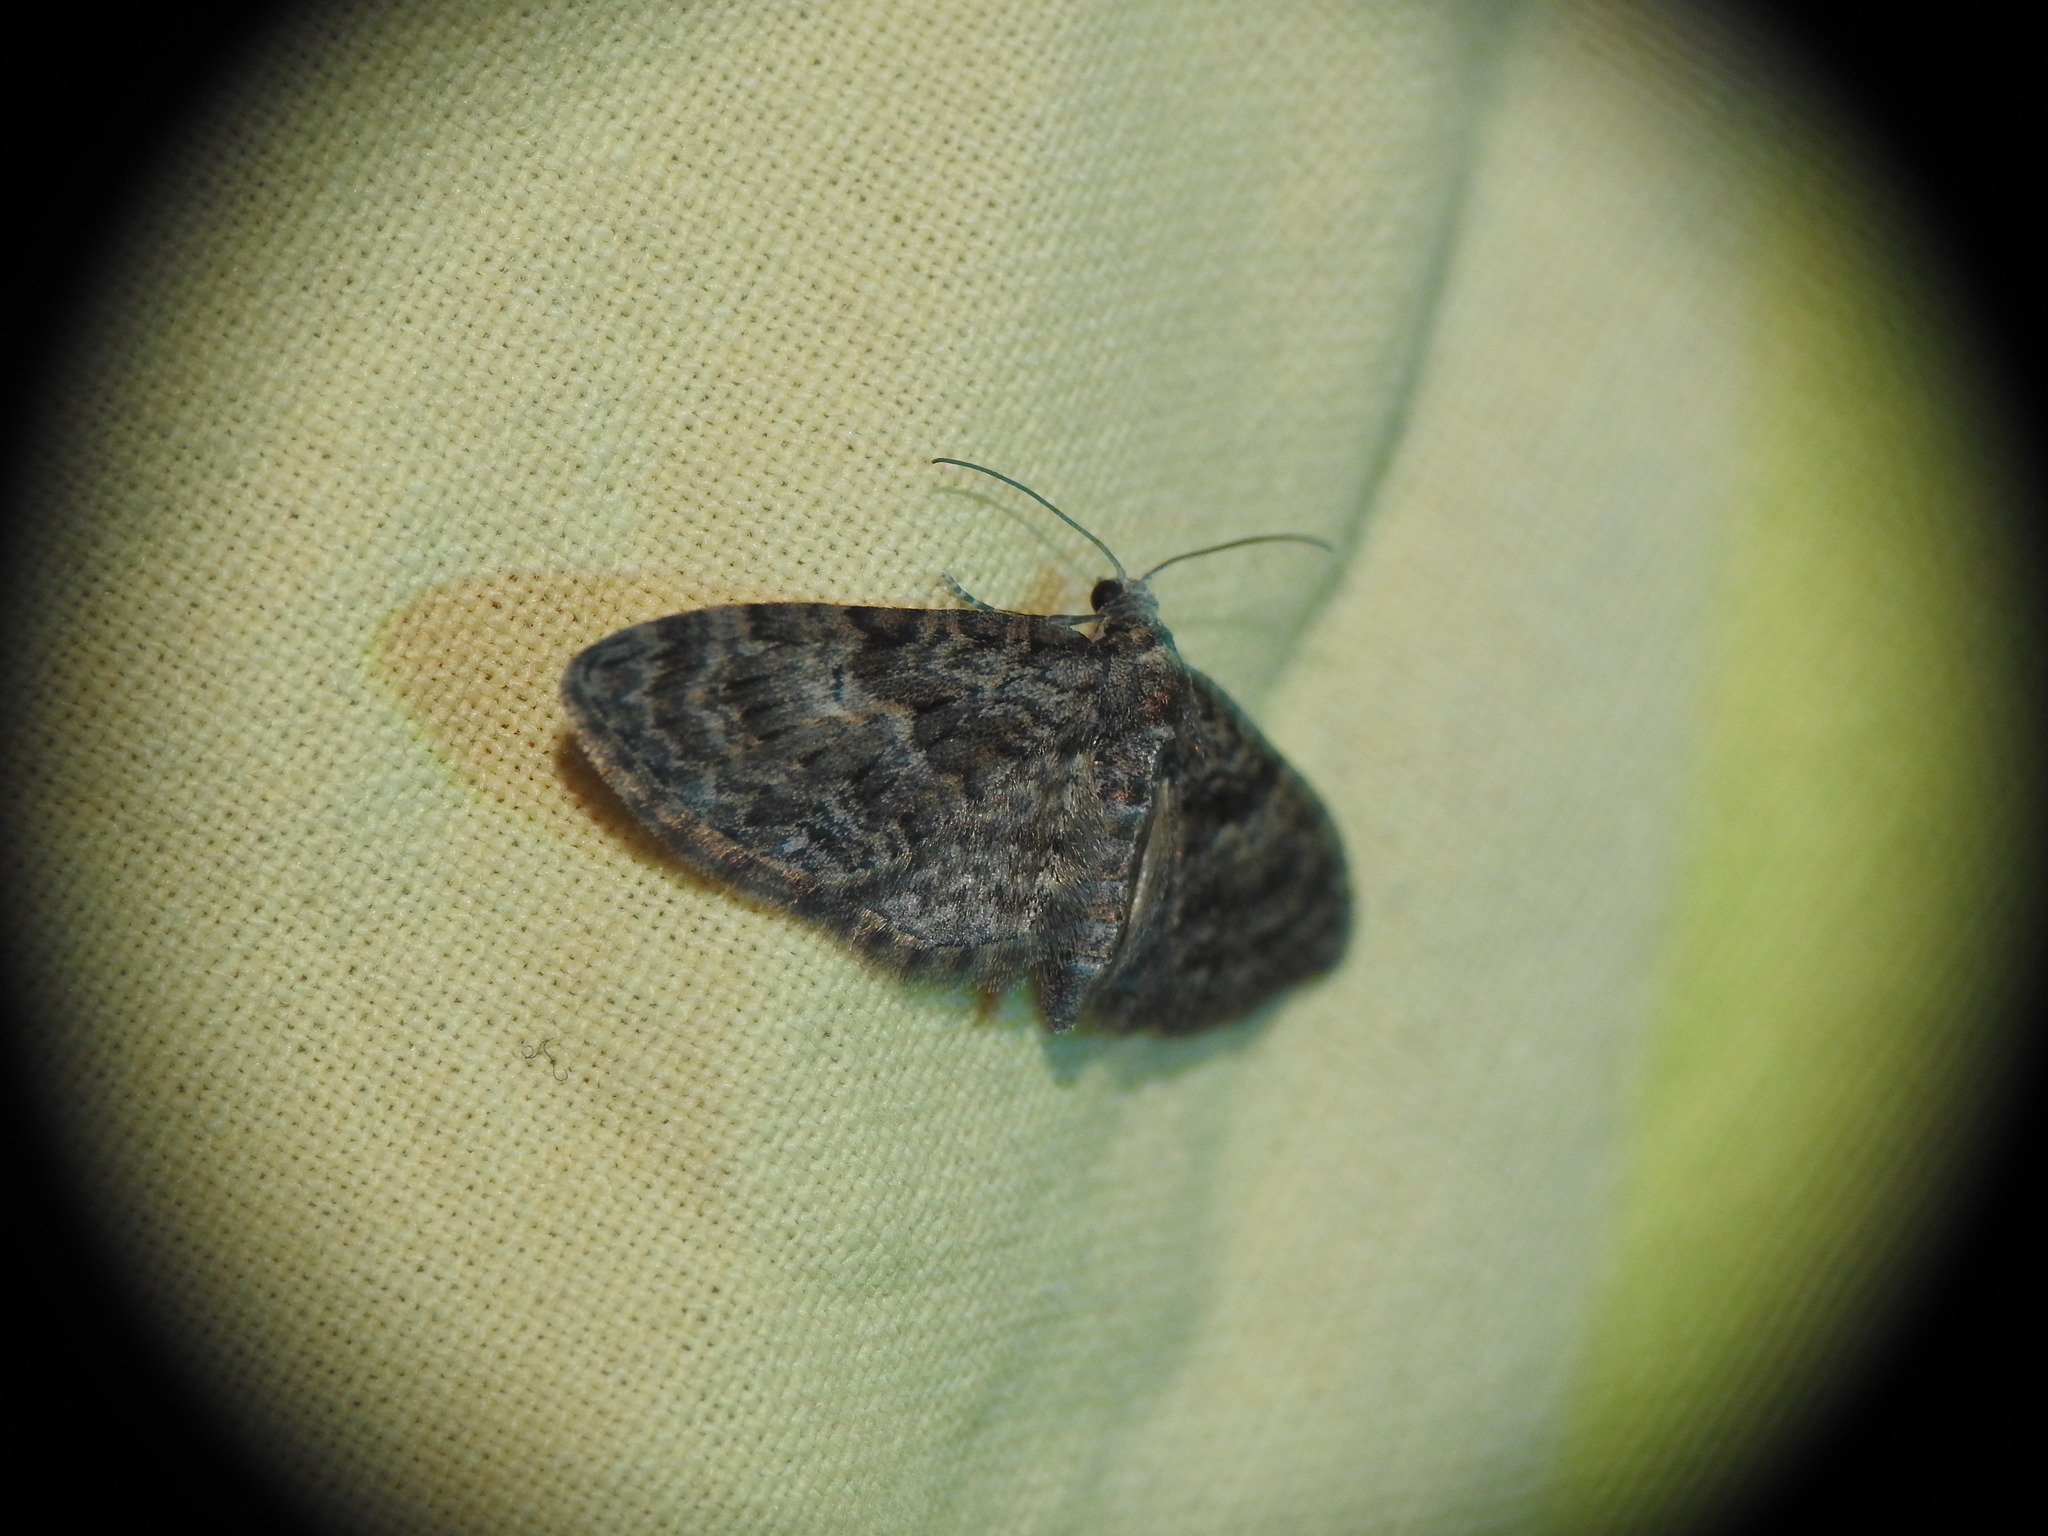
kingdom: Animalia
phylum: Arthropoda
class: Insecta
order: Lepidoptera
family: Geometridae
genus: Eupithecia
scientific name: Eupithecia abbreviata
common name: Brindled pug
